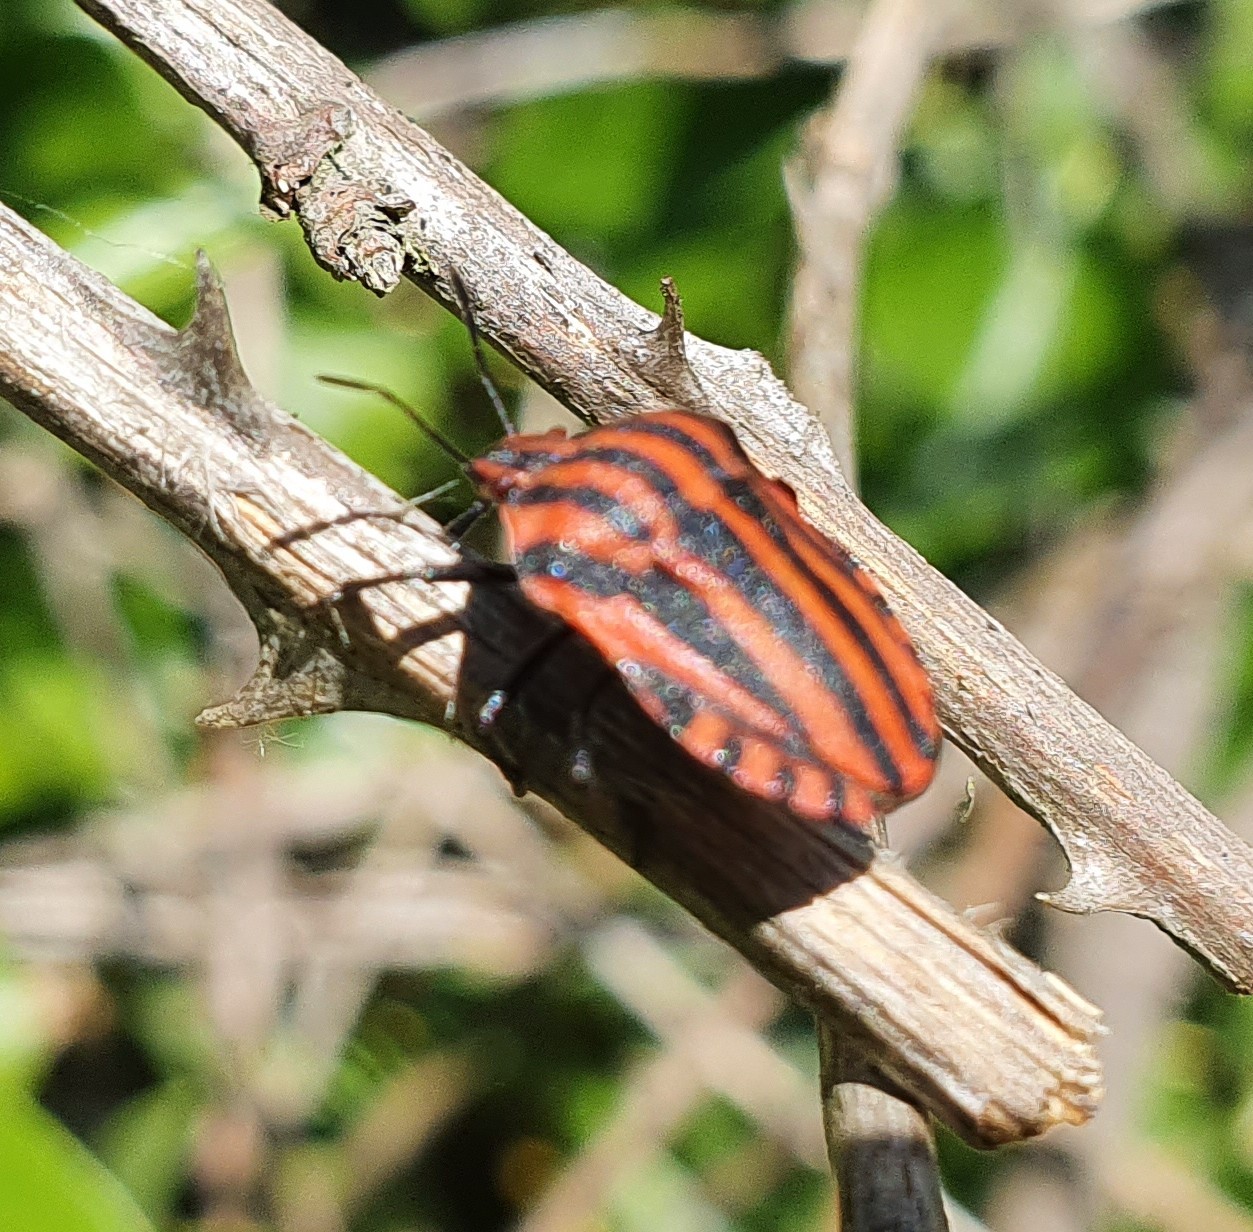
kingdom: Animalia
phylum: Arthropoda
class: Insecta
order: Hemiptera
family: Pentatomidae
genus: Graphosoma
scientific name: Graphosoma italicum
